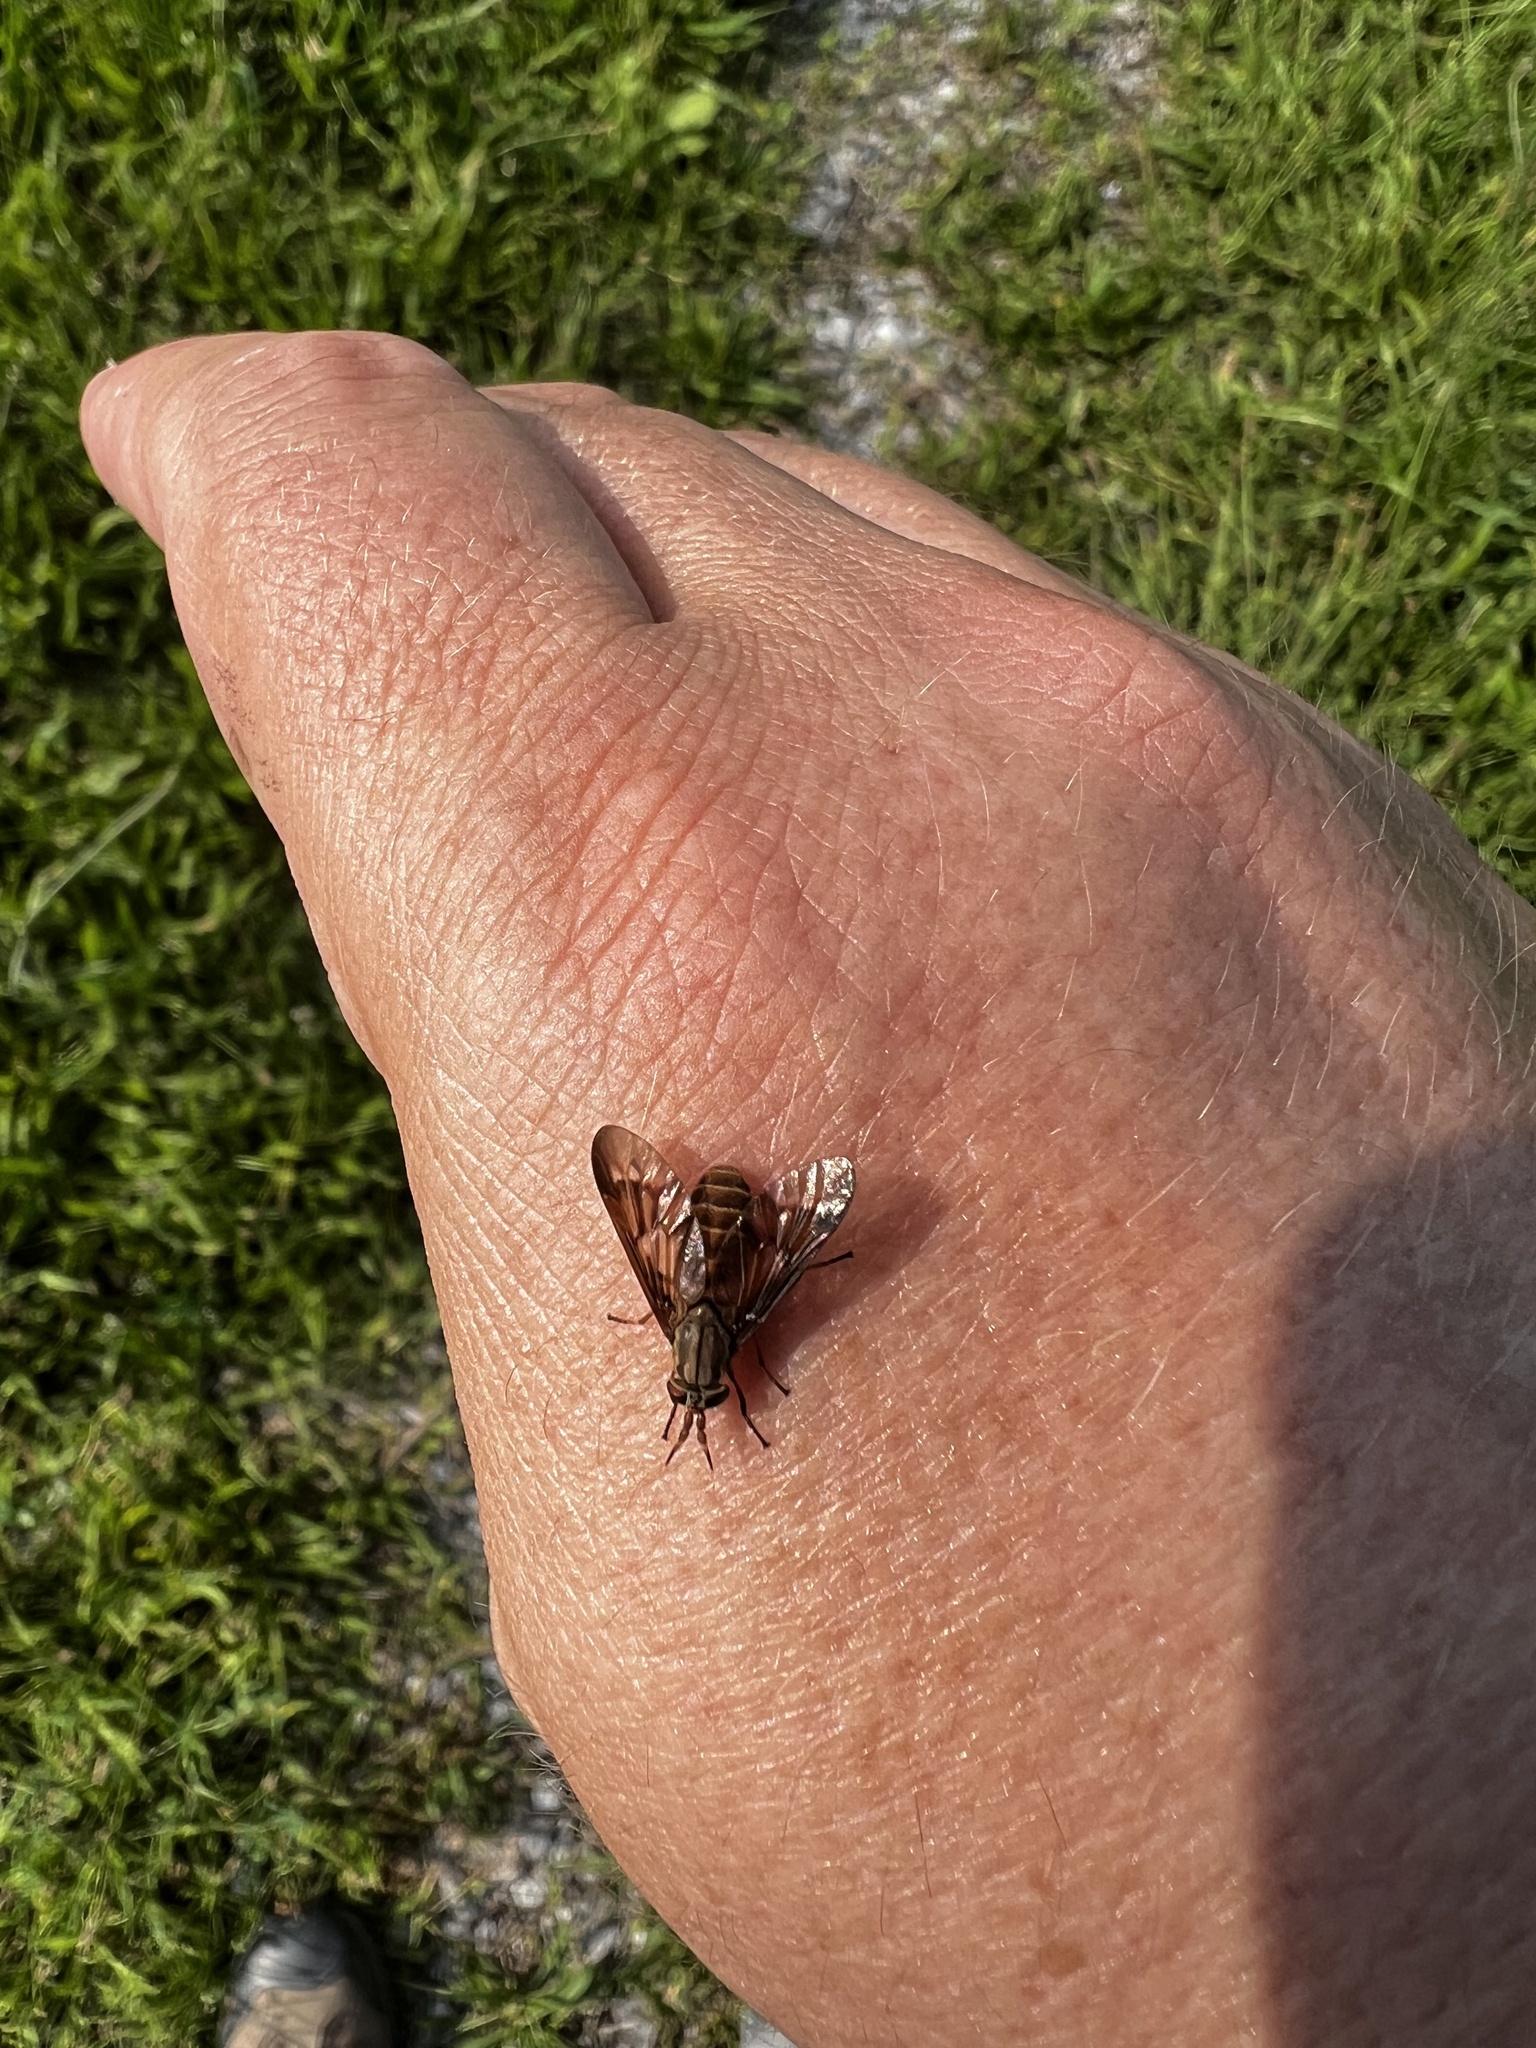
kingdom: Animalia
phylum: Arthropoda
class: Insecta
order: Diptera
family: Tabanidae
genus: Chrysops
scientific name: Chrysops brunneus
